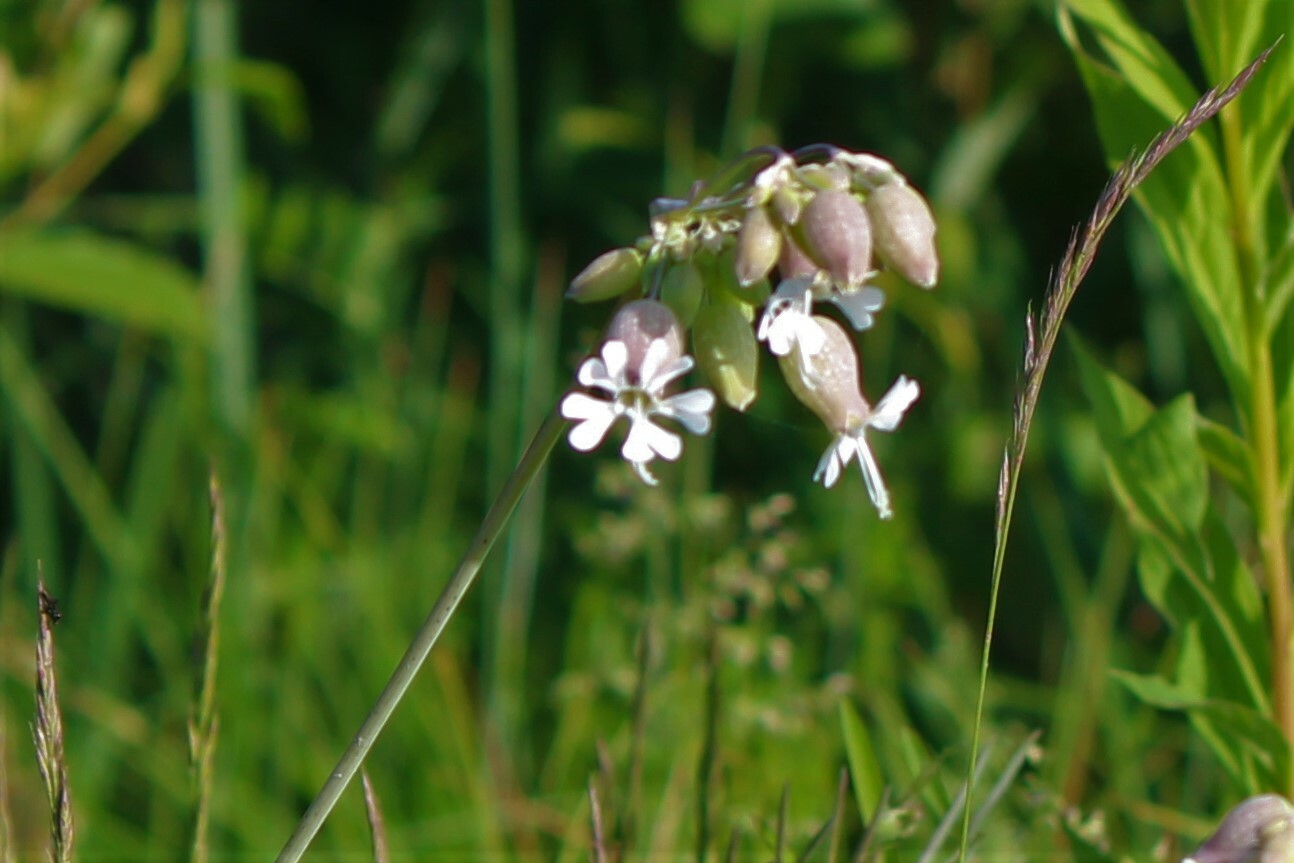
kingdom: Plantae
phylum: Tracheophyta
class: Magnoliopsida
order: Caryophyllales
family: Caryophyllaceae
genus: Silene
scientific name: Silene vulgaris
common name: Bladder campion
